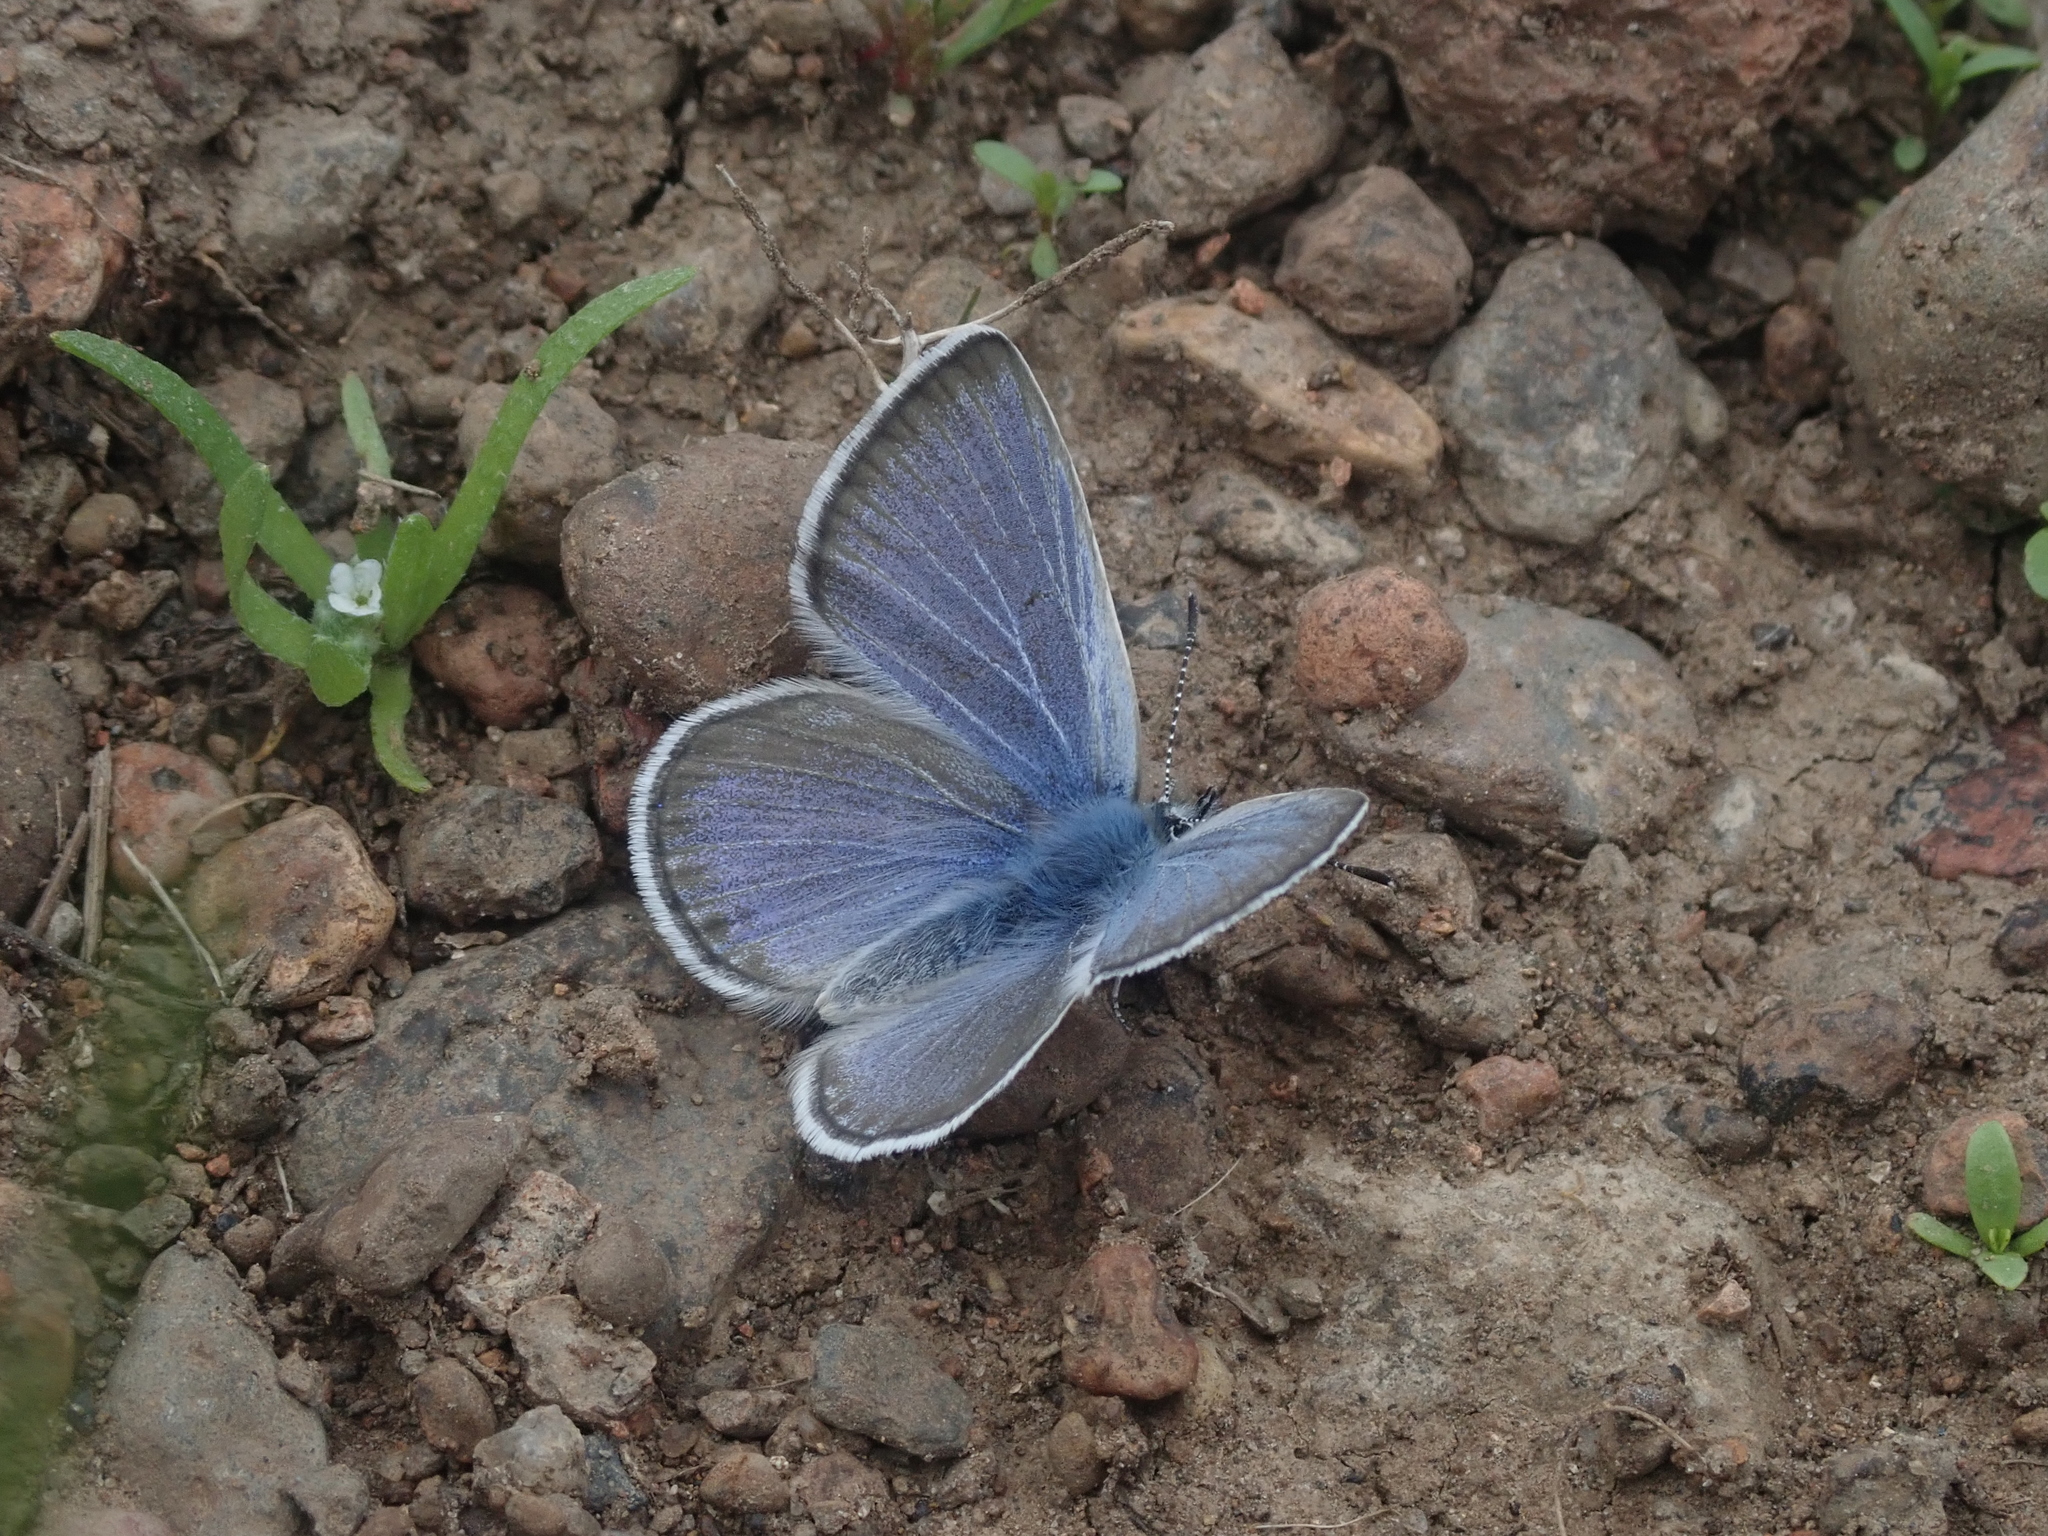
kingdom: Animalia
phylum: Arthropoda
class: Insecta
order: Lepidoptera
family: Lycaenidae
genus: Glaucopsyche
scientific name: Glaucopsyche piasus
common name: Arrowhead blue
